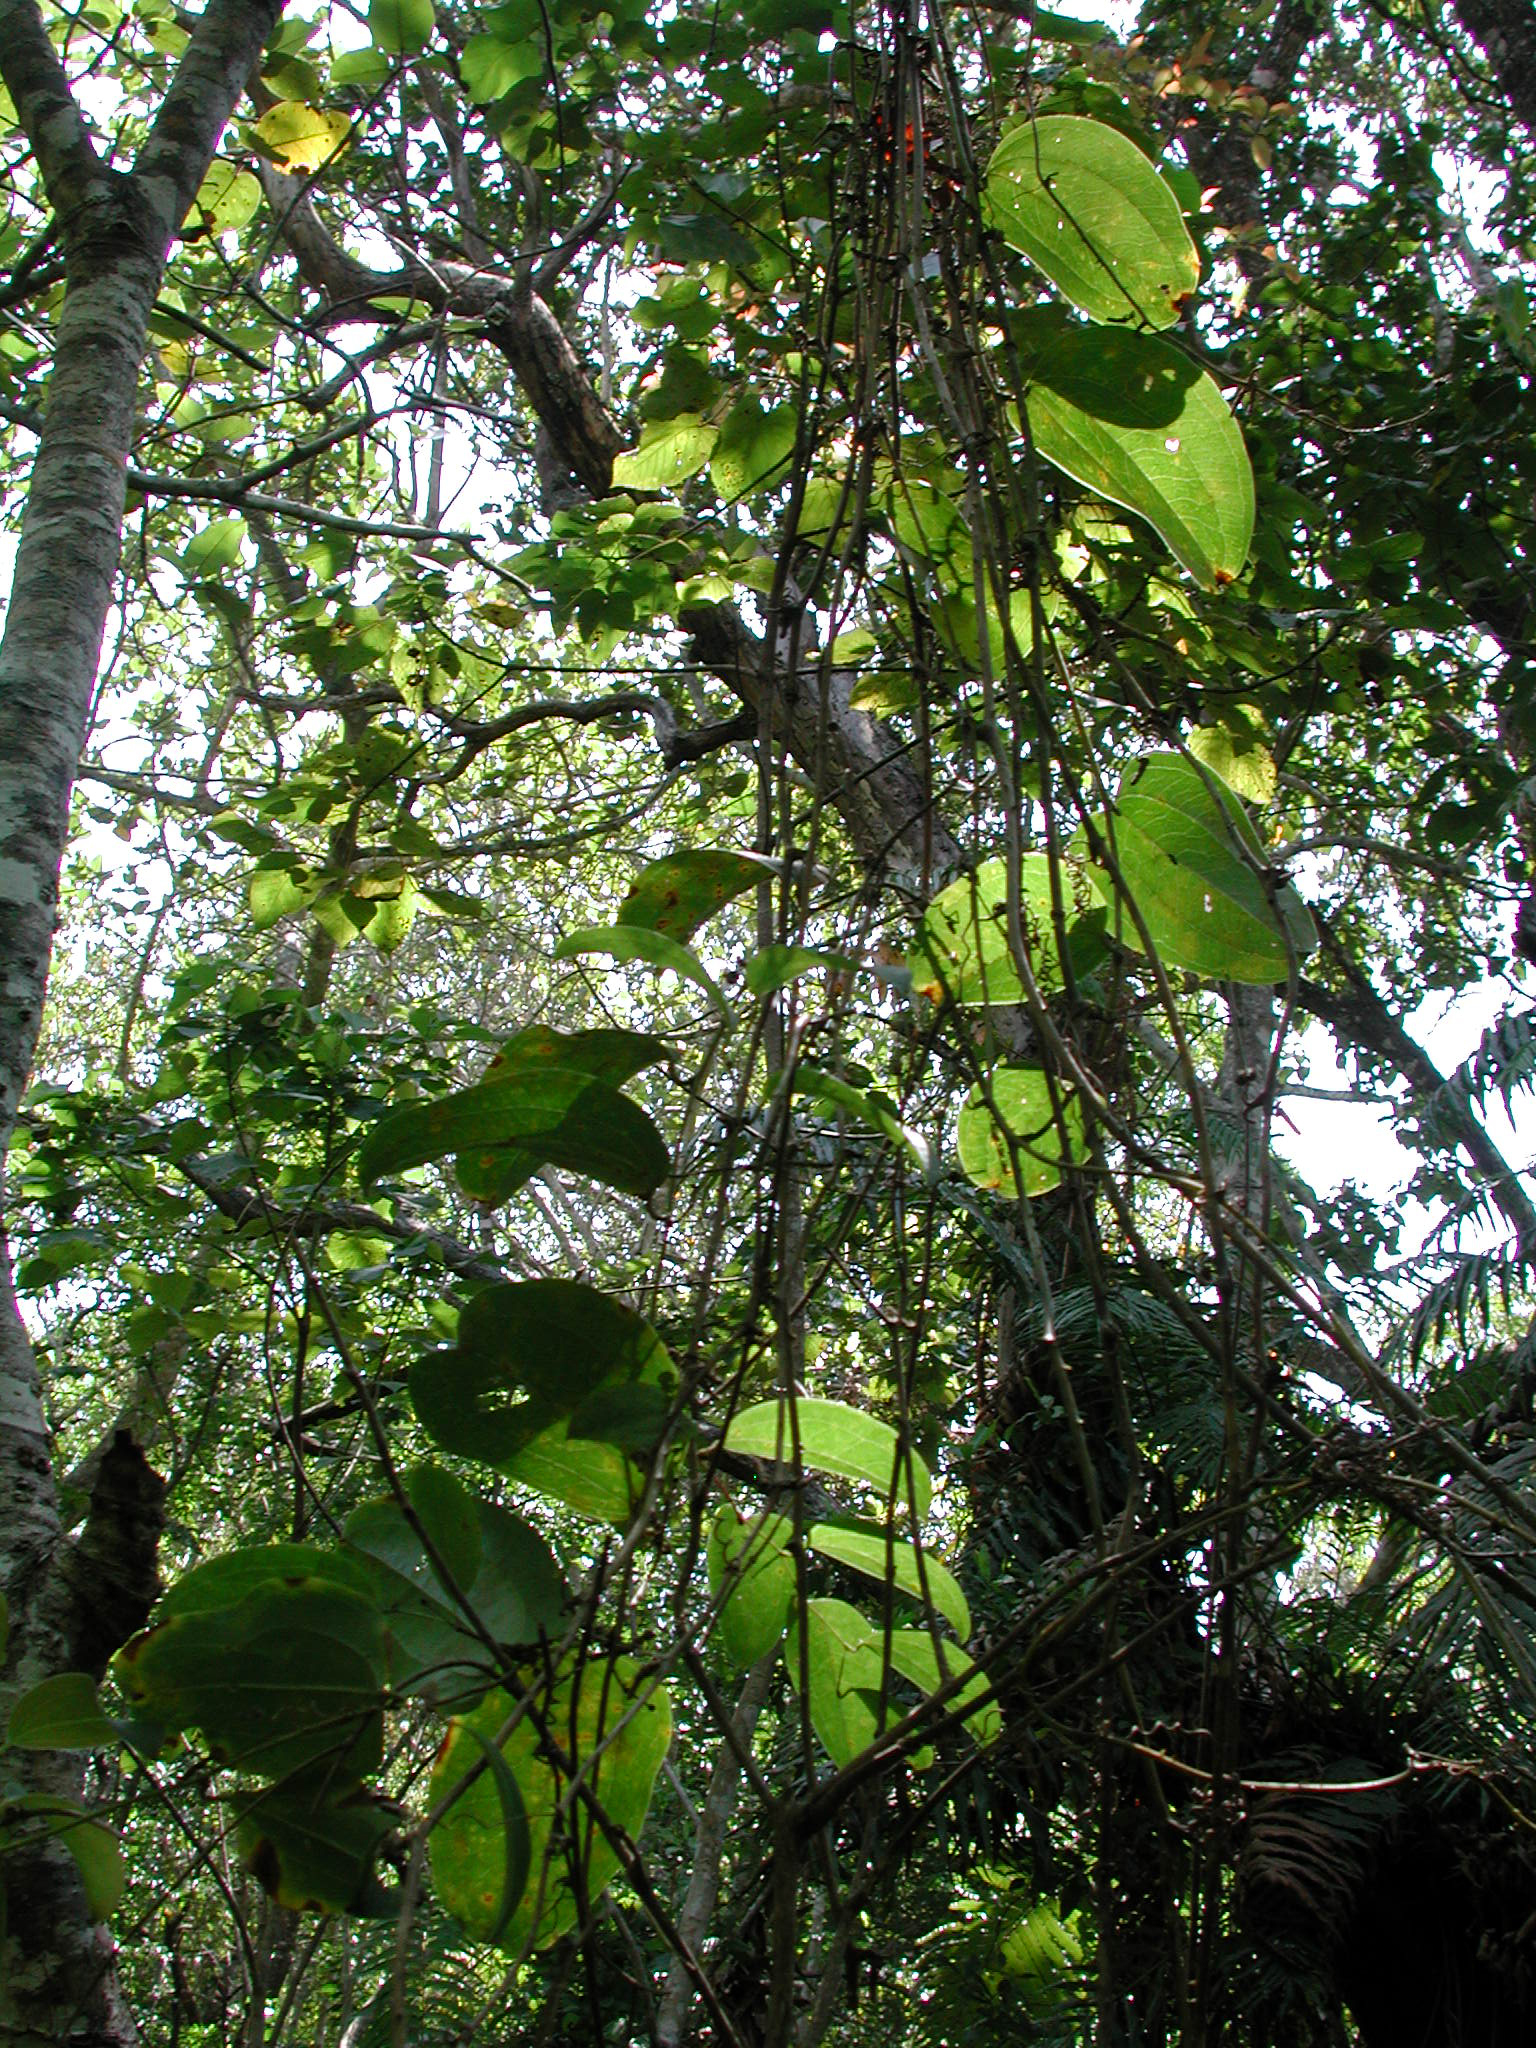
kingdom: Plantae
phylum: Tracheophyta
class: Liliopsida
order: Liliales
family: Smilacaceae
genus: Smilax
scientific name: Smilax anceps
